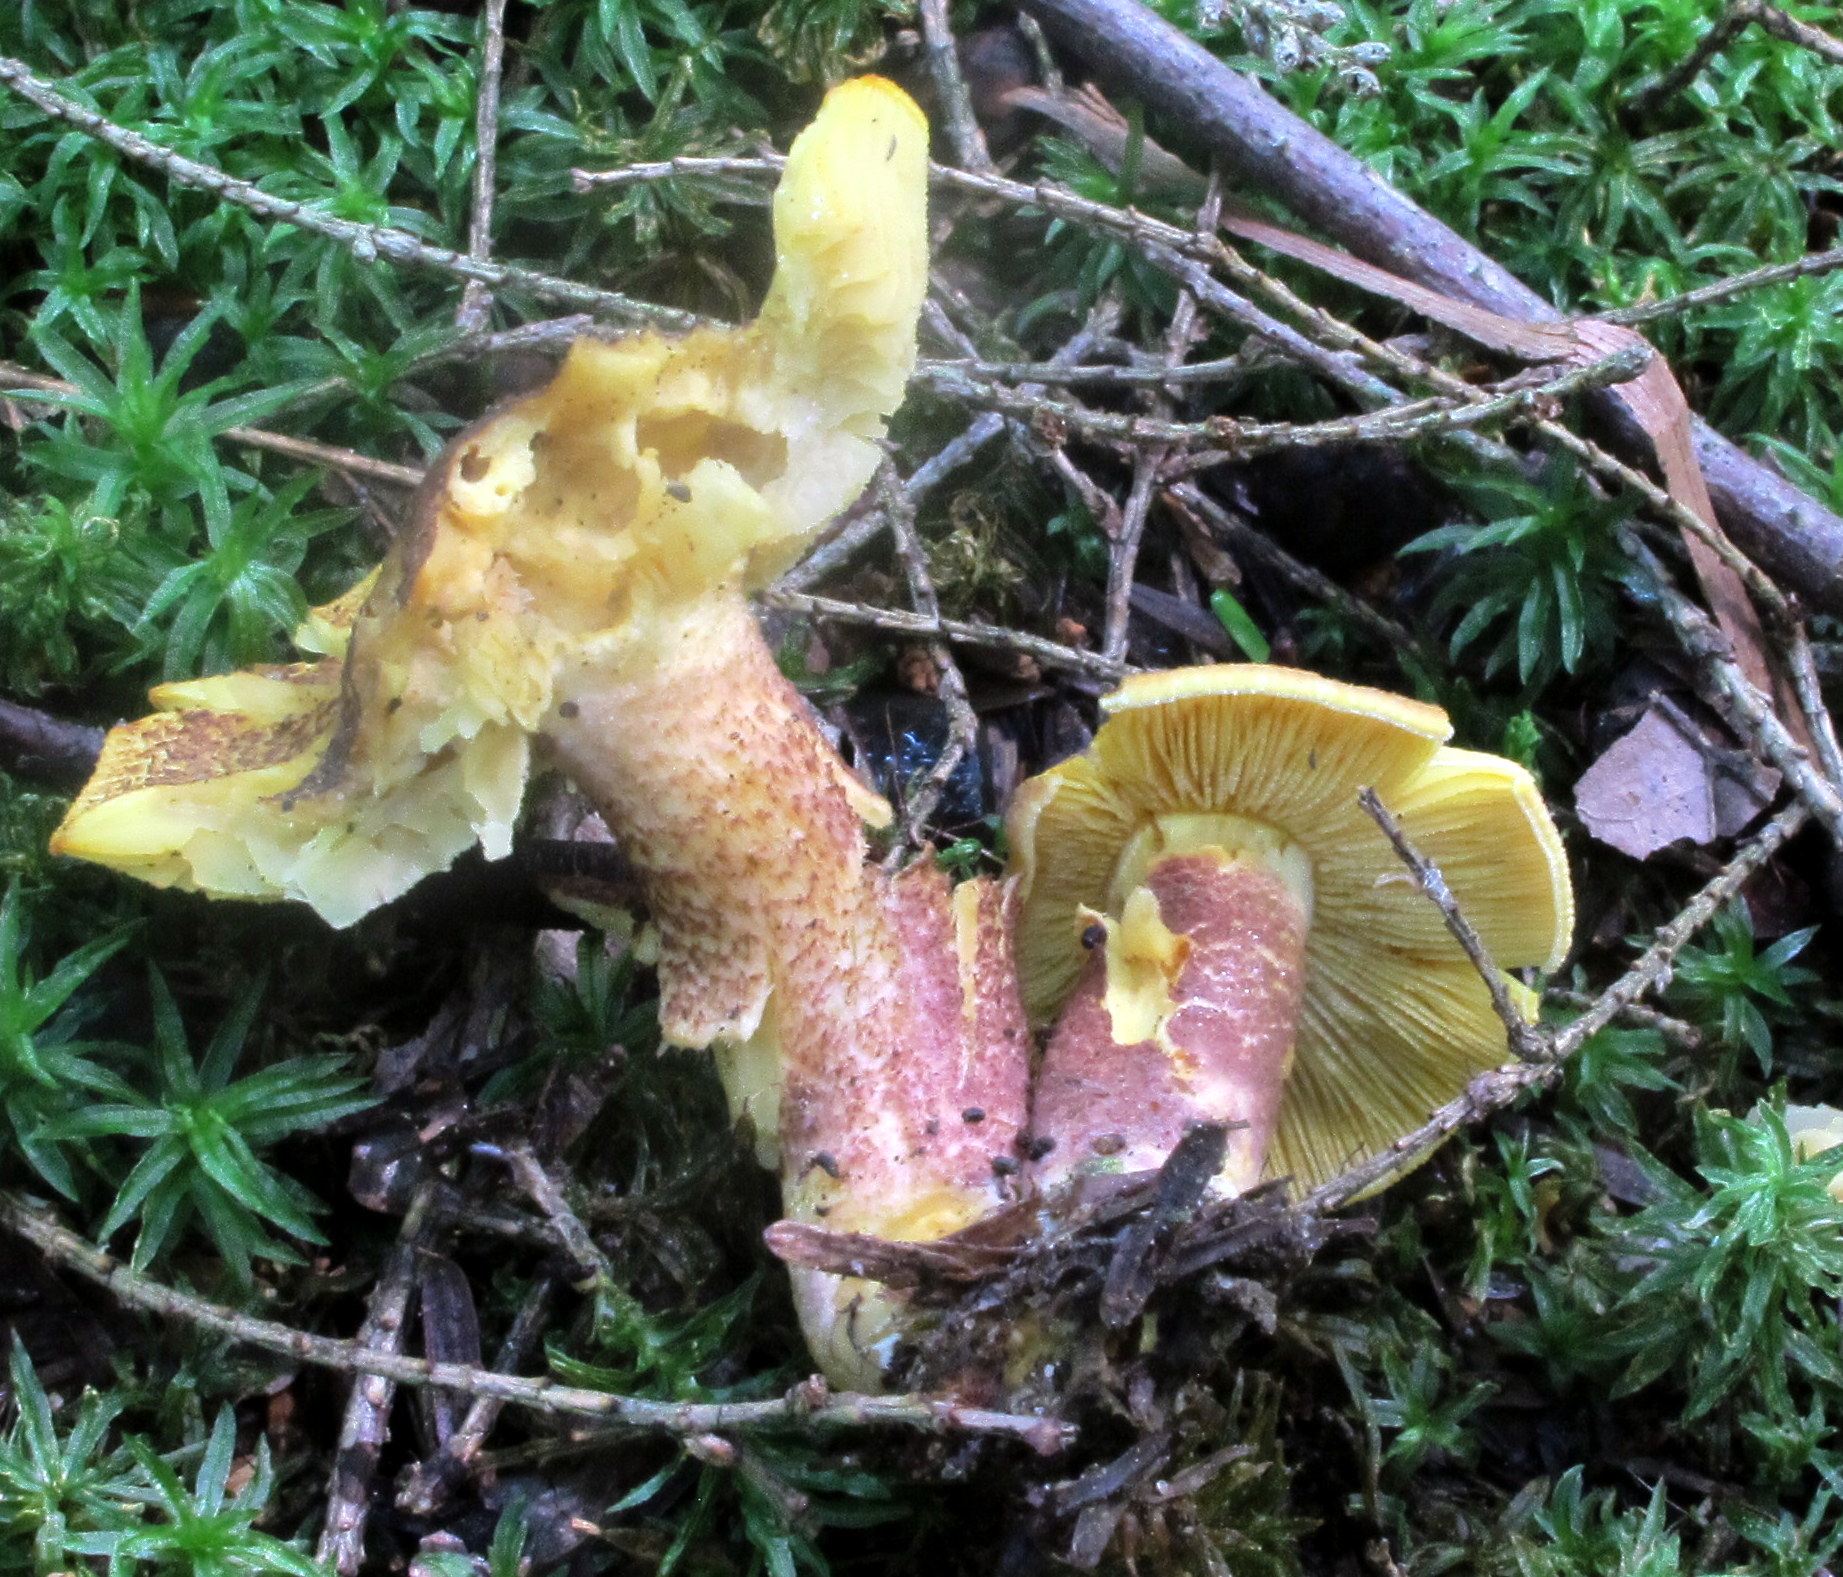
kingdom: Fungi
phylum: Basidiomycota
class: Agaricomycetes
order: Agaricales
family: Tricholomataceae
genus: Tricholomopsis
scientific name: Tricholomopsis rutilans
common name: Plums and custard
